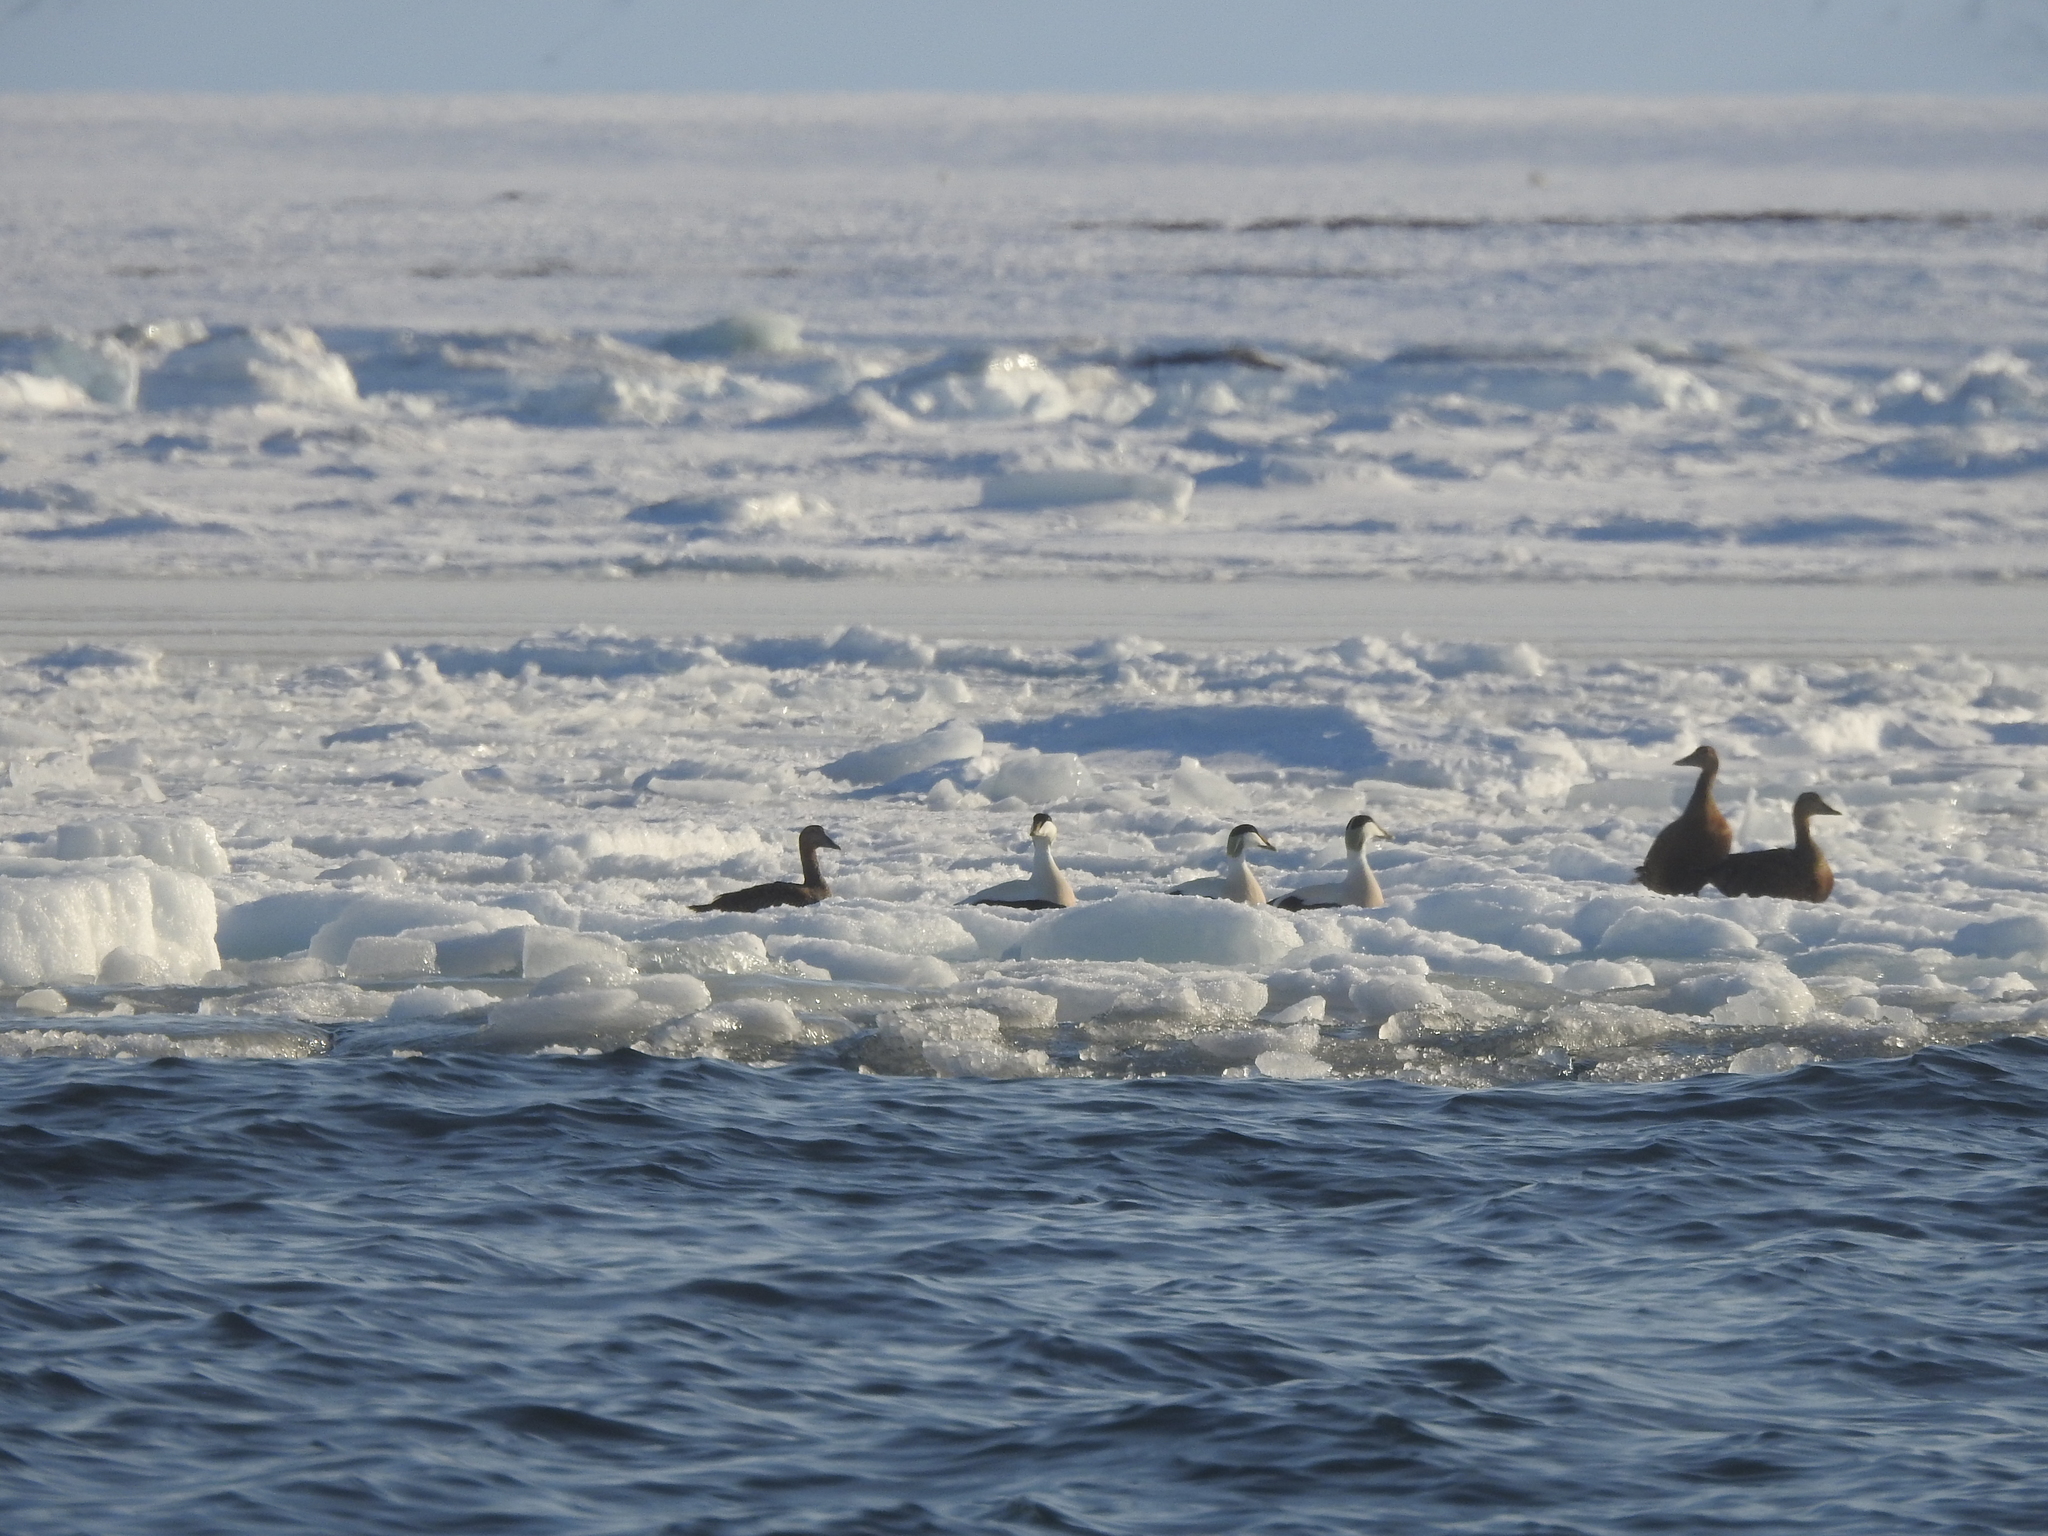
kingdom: Animalia
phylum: Chordata
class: Aves
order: Anseriformes
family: Anatidae
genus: Somateria
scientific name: Somateria mollissima
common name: Common eider
